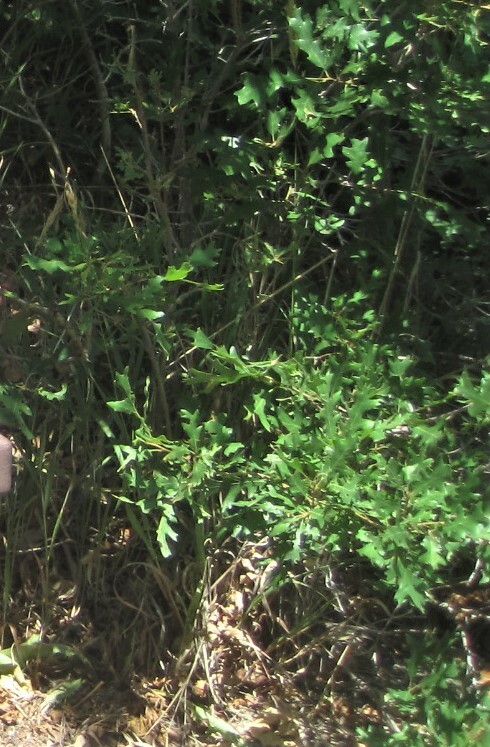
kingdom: Plantae
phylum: Tracheophyta
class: Magnoliopsida
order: Fagales
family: Fagaceae
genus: Quercus
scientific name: Quercus gambelii
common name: Gambel oak
